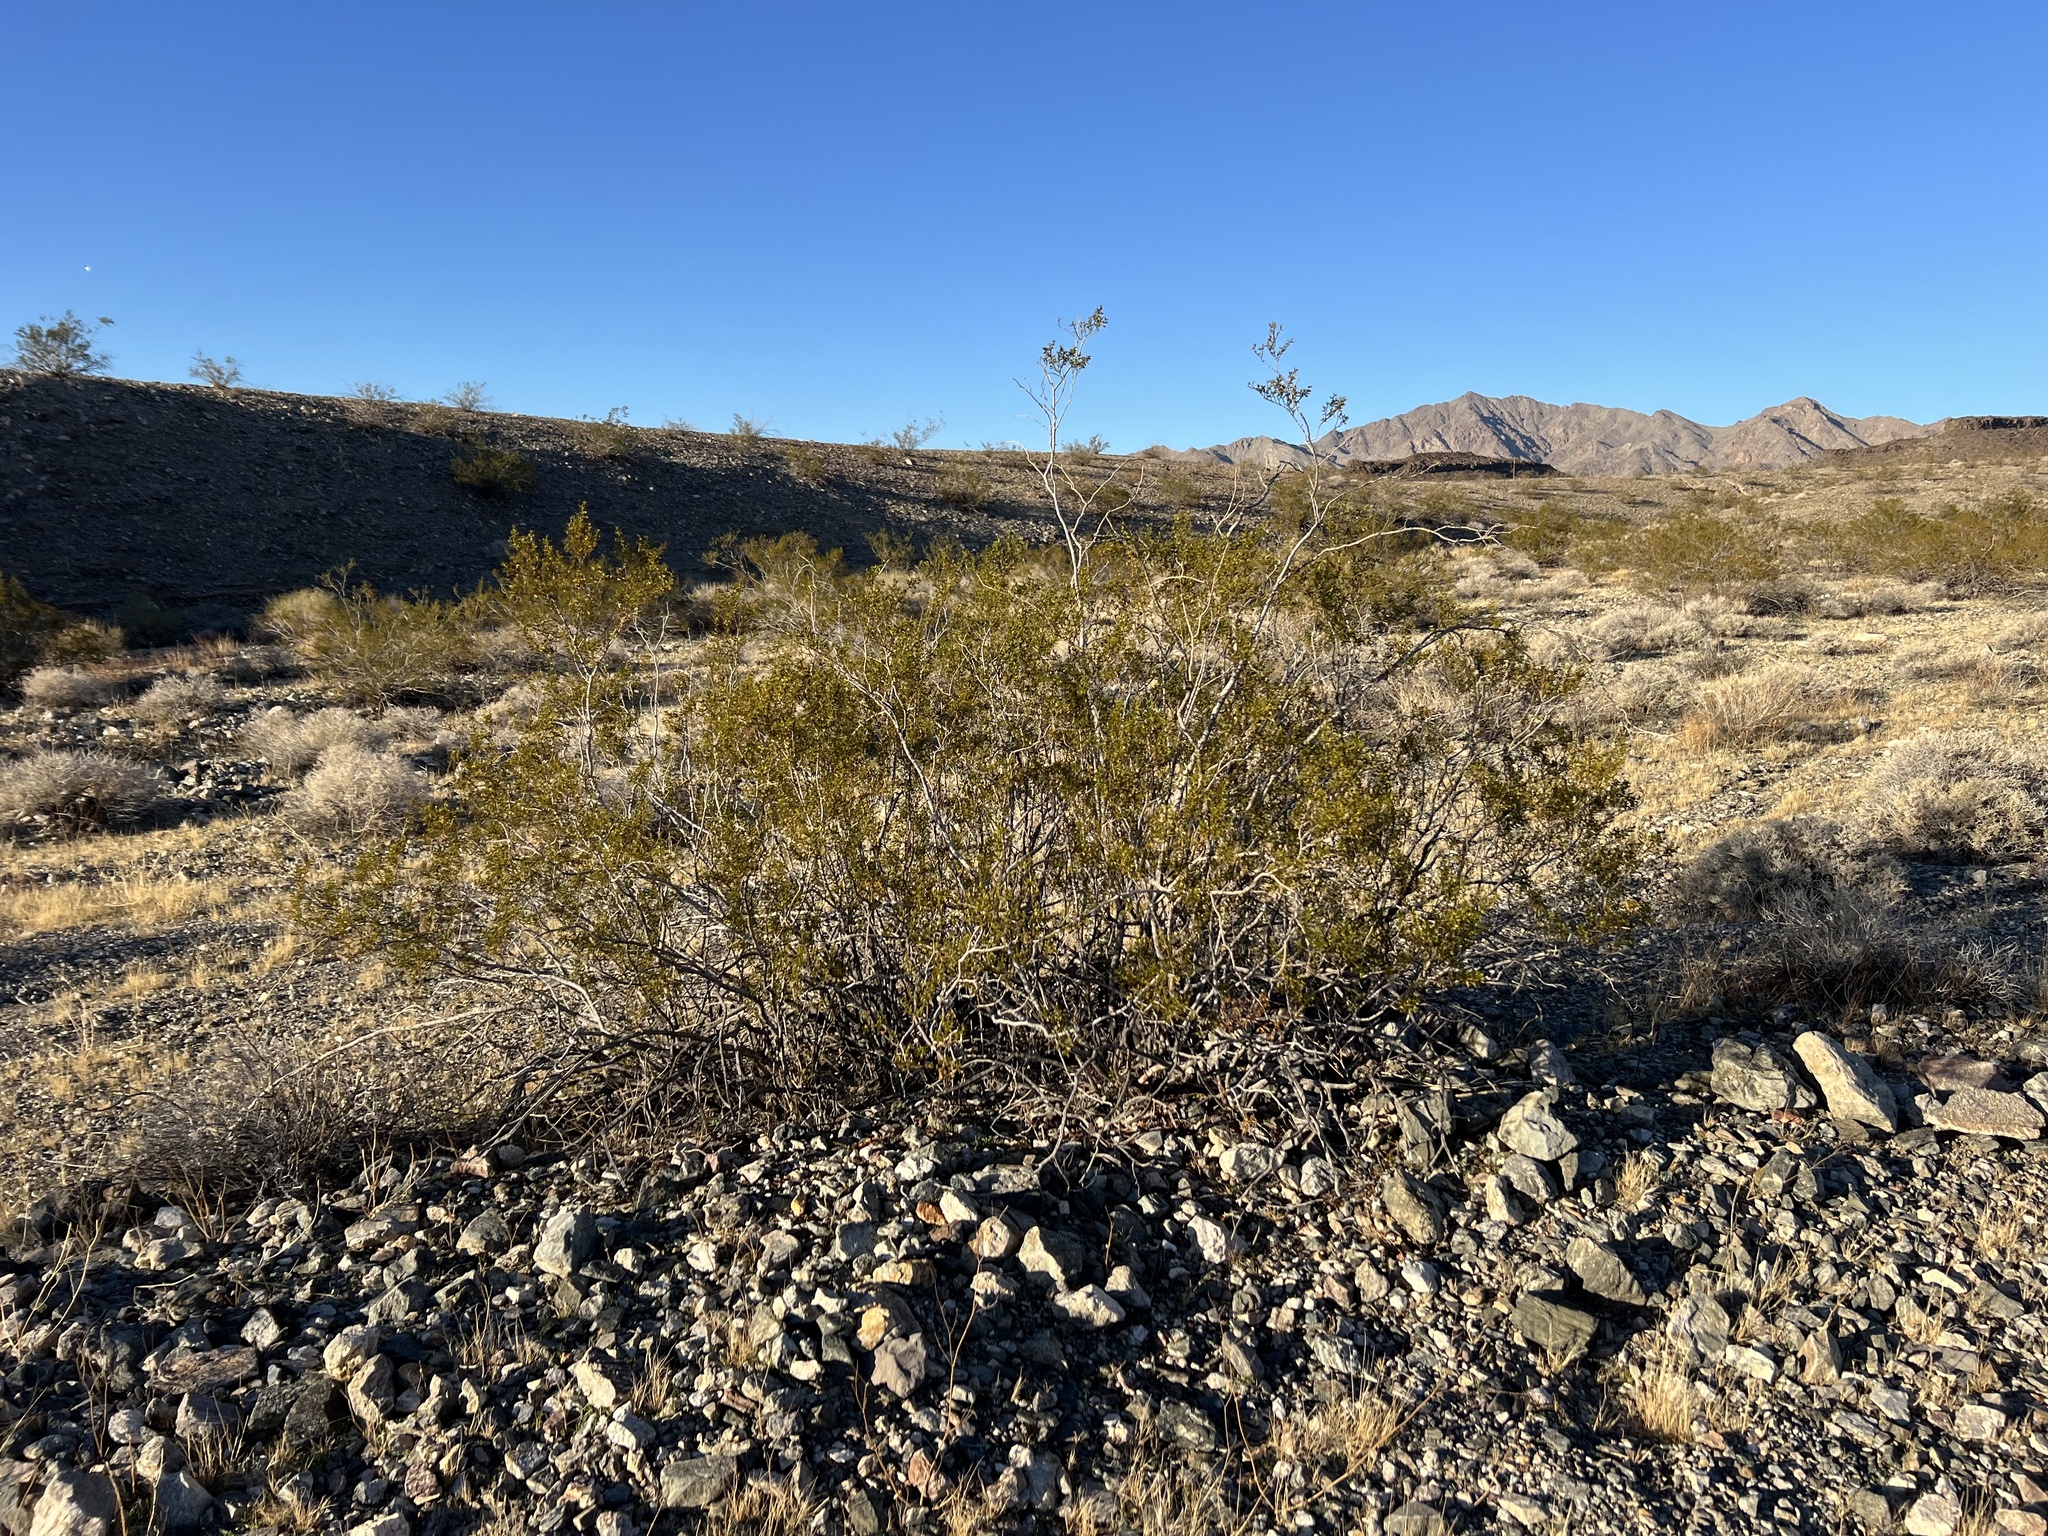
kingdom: Plantae
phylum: Tracheophyta
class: Magnoliopsida
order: Zygophyllales
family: Zygophyllaceae
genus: Larrea
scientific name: Larrea tridentata
